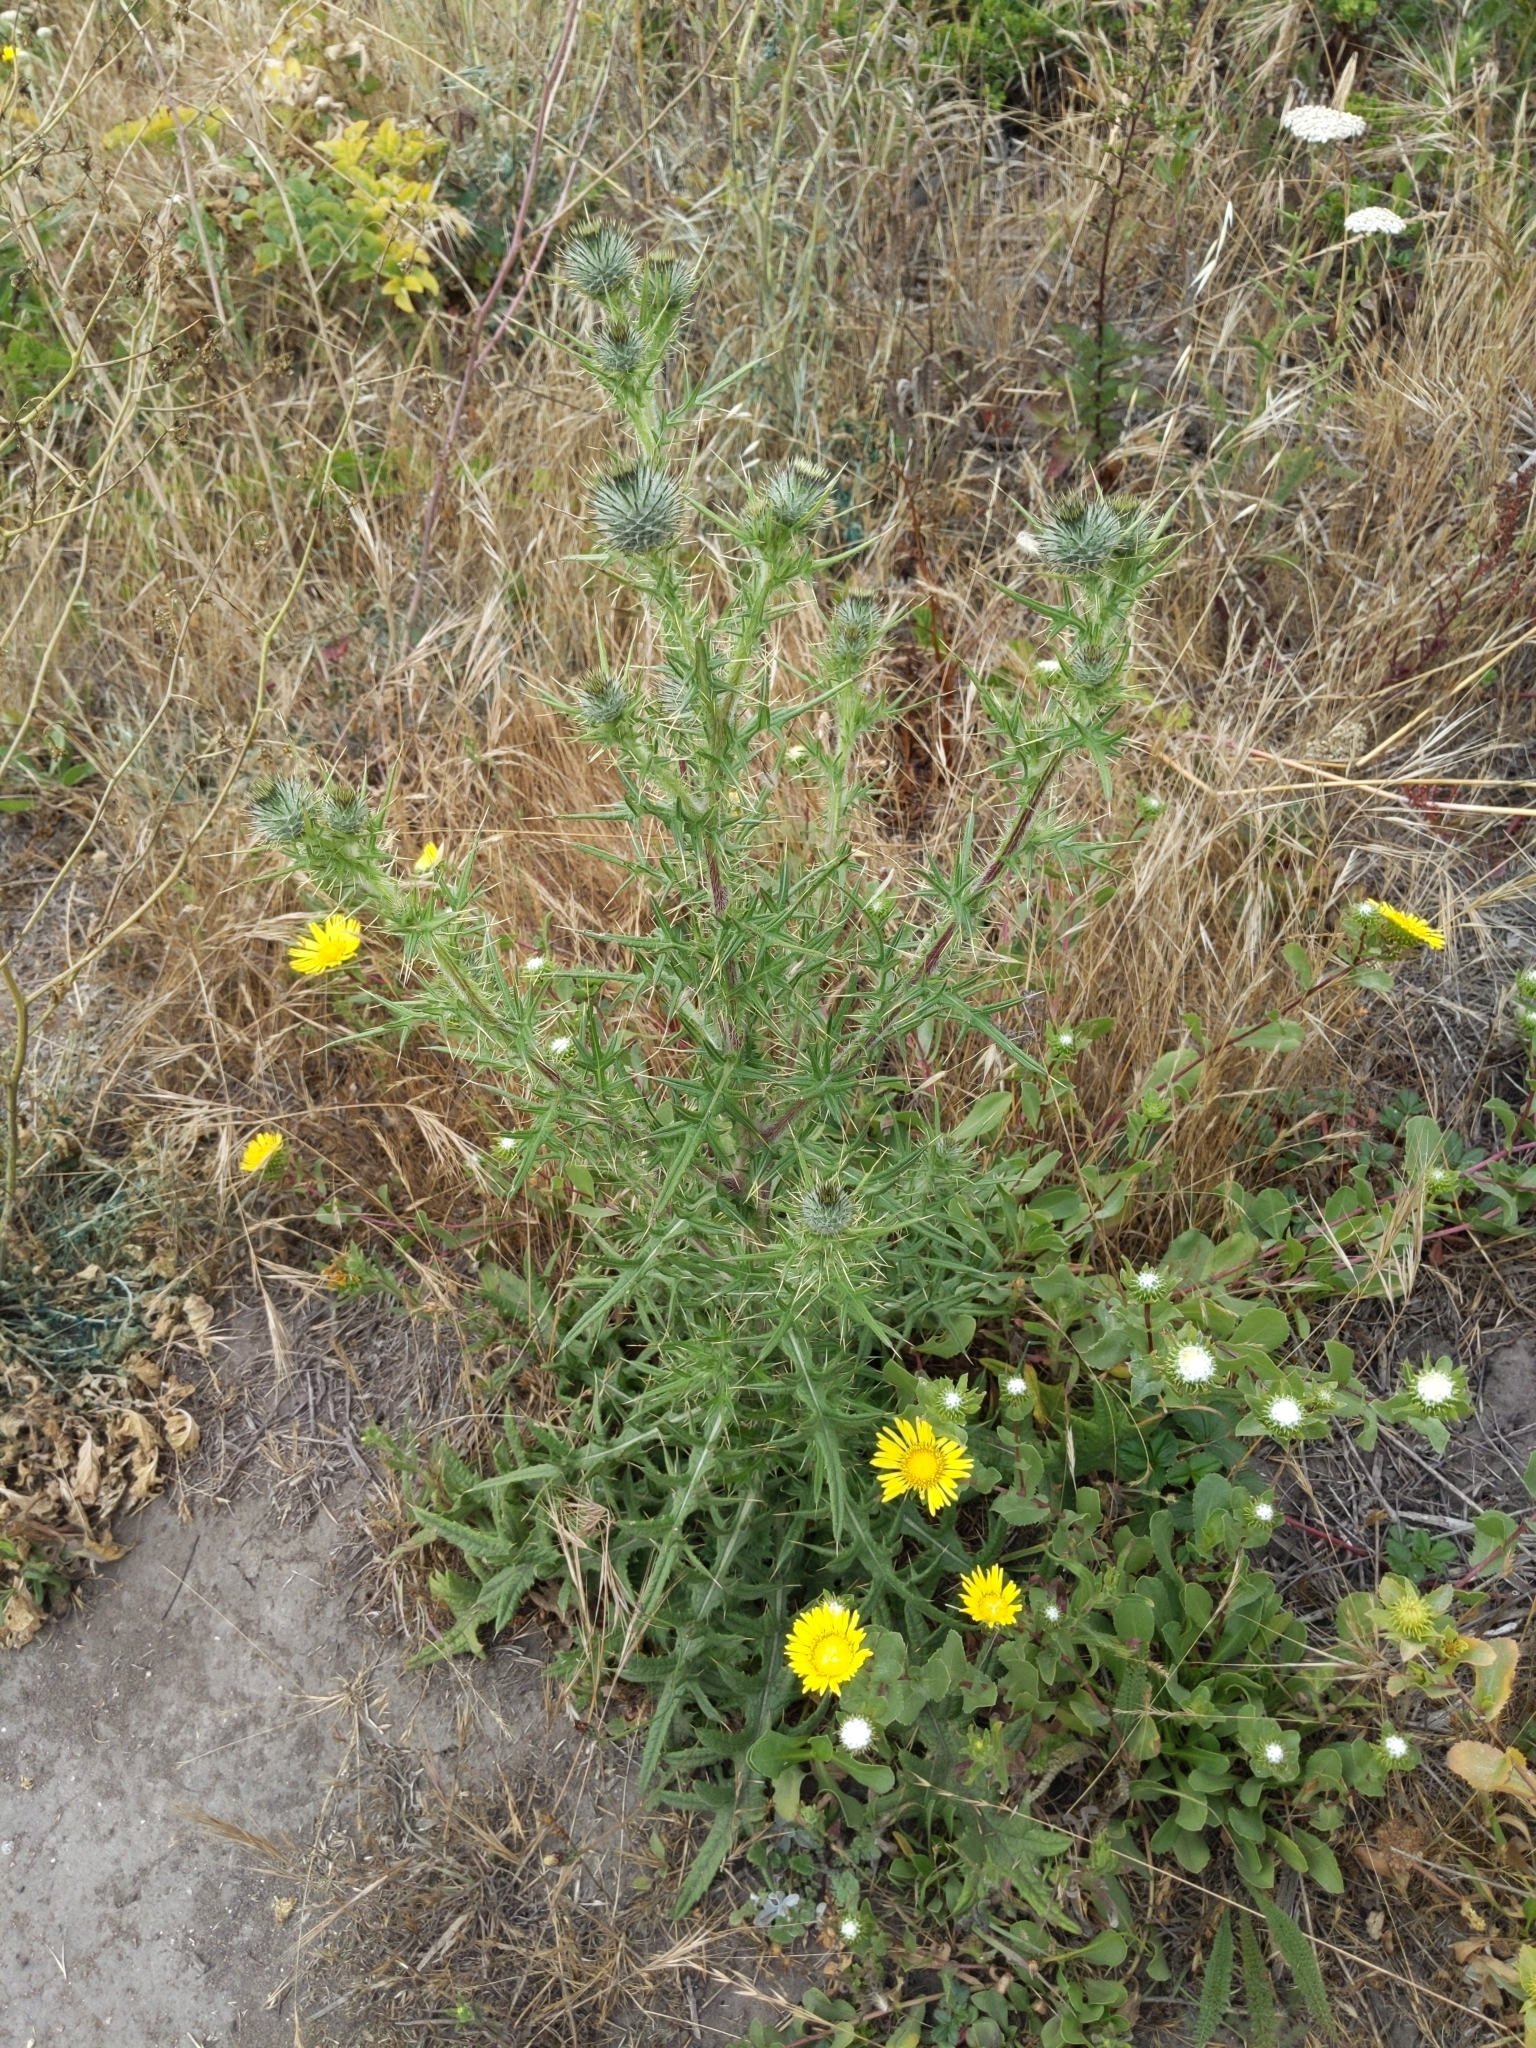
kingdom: Plantae
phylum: Tracheophyta
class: Magnoliopsida
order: Asterales
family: Asteraceae
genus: Cirsium
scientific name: Cirsium vulgare
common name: Bull thistle
